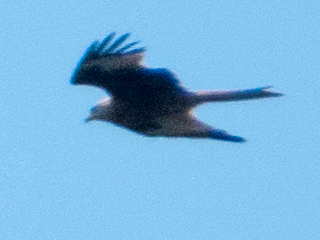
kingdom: Animalia
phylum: Chordata
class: Aves
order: Accipitriformes
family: Accipitridae
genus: Milvus
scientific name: Milvus milvus
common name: Red kite
